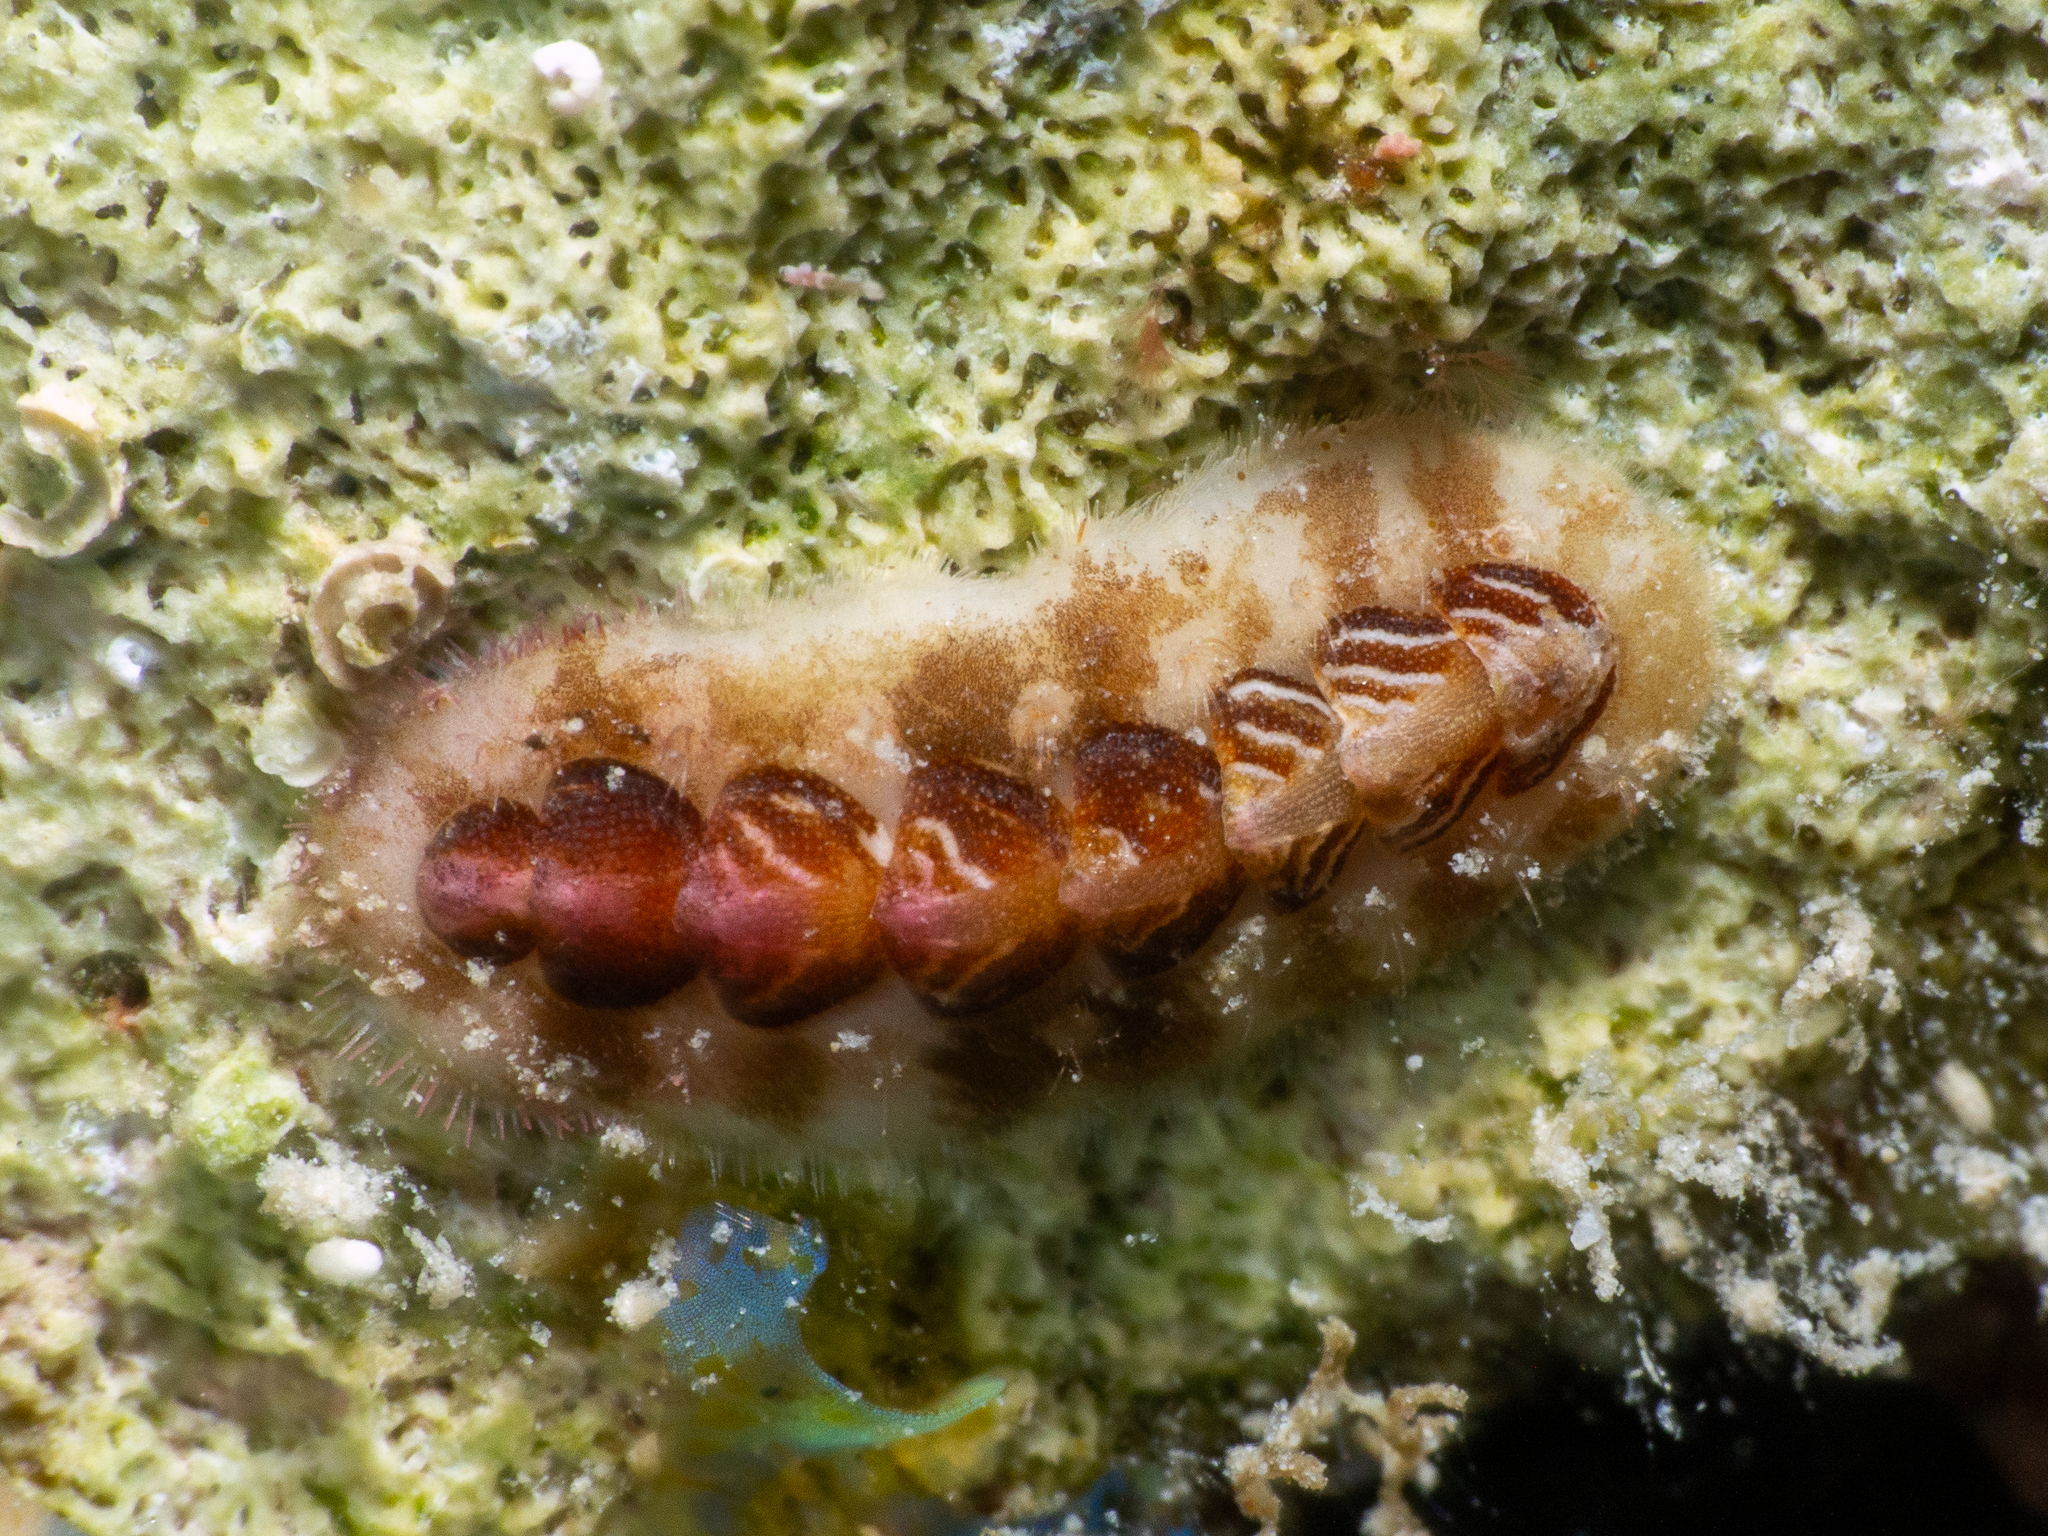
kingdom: Animalia
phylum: Mollusca
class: Polyplacophora
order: Chitonida
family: Acanthochitonidae
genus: Americhiton
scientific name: Americhiton zebra
